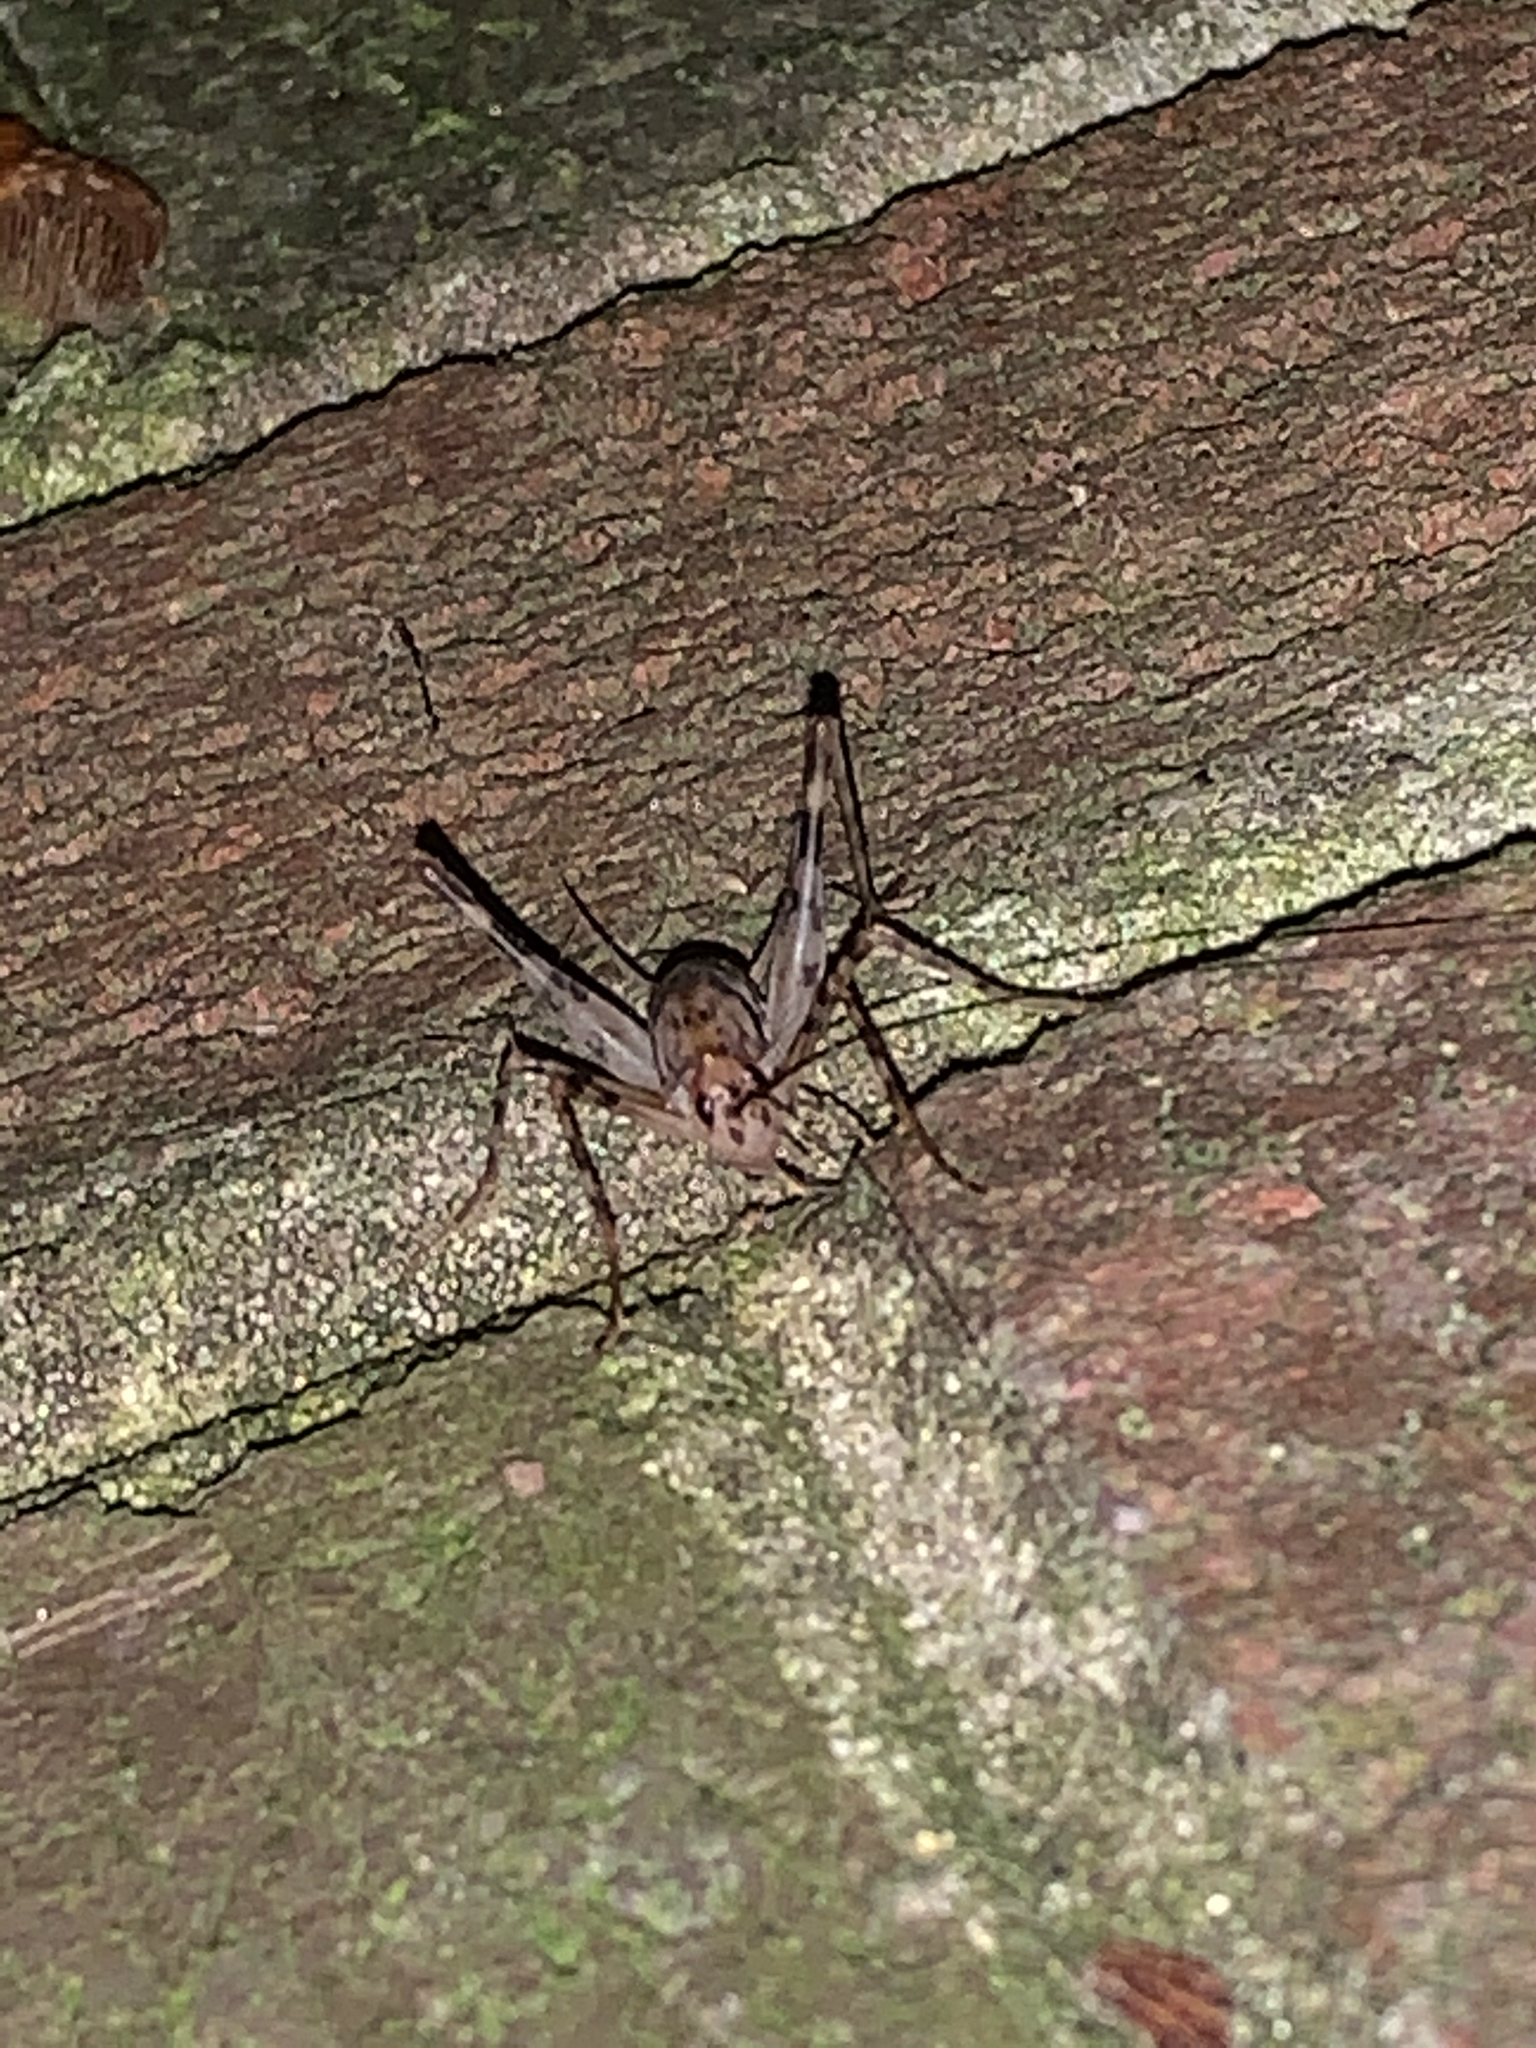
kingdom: Animalia
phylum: Arthropoda
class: Insecta
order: Orthoptera
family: Rhaphidophoridae
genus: Tachycines
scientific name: Tachycines asynamorus
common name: Greenhouse camel cricket
